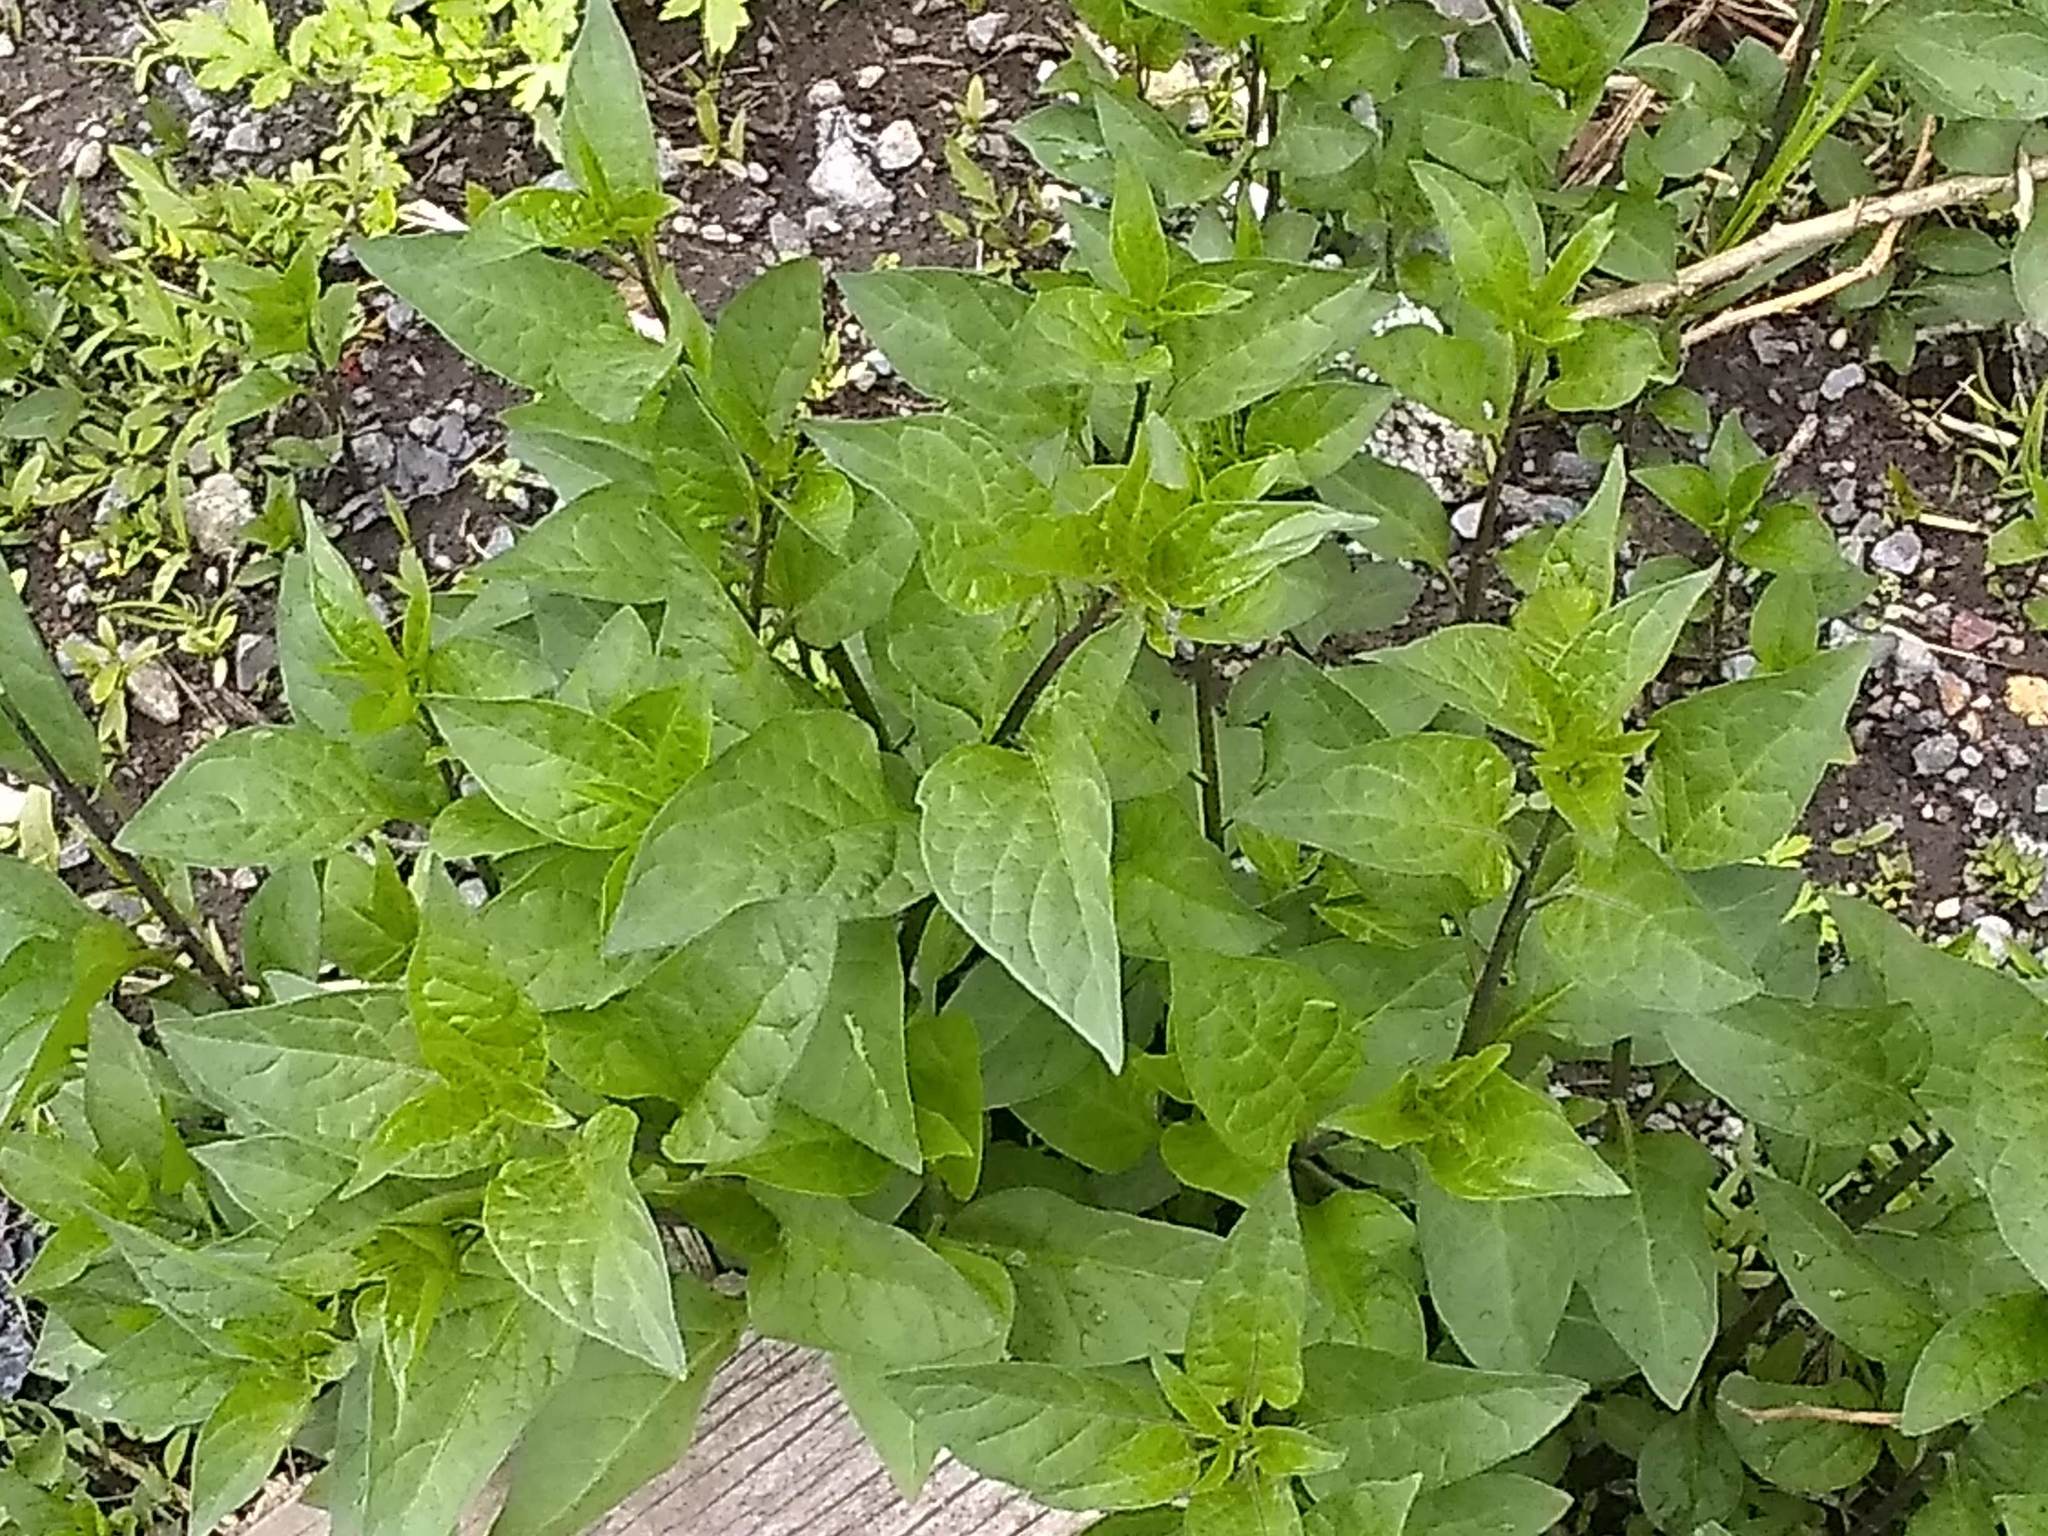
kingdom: Plantae
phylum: Tracheophyta
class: Magnoliopsida
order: Solanales
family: Solanaceae
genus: Solanum
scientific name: Solanum dulcamara
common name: Climbing nightshade
